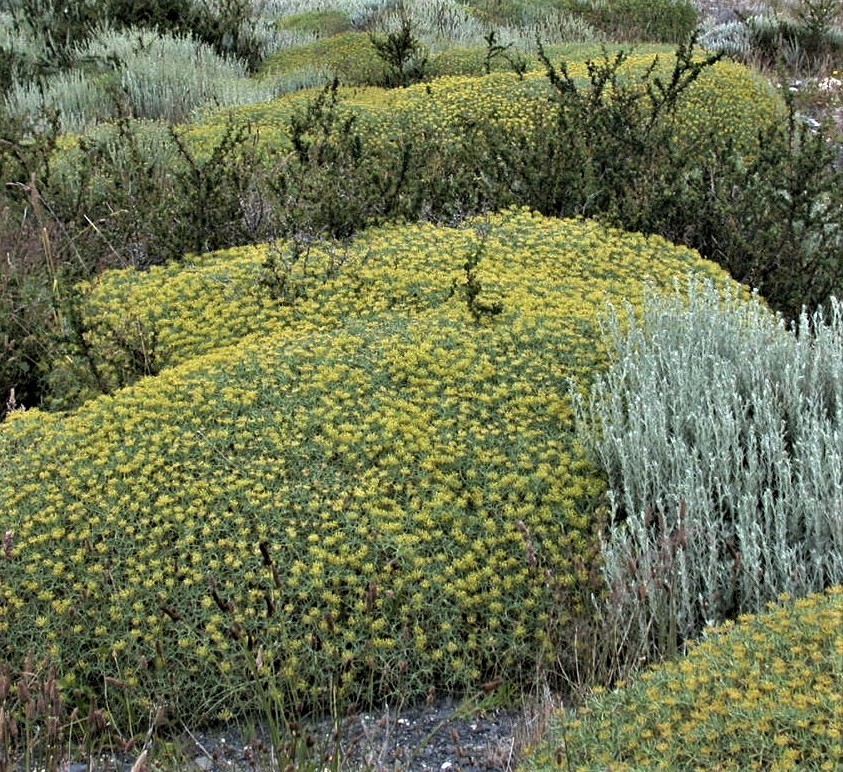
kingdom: Plantae
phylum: Tracheophyta
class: Magnoliopsida
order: Apiales
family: Apiaceae
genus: Azorella
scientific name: Azorella prolifera
